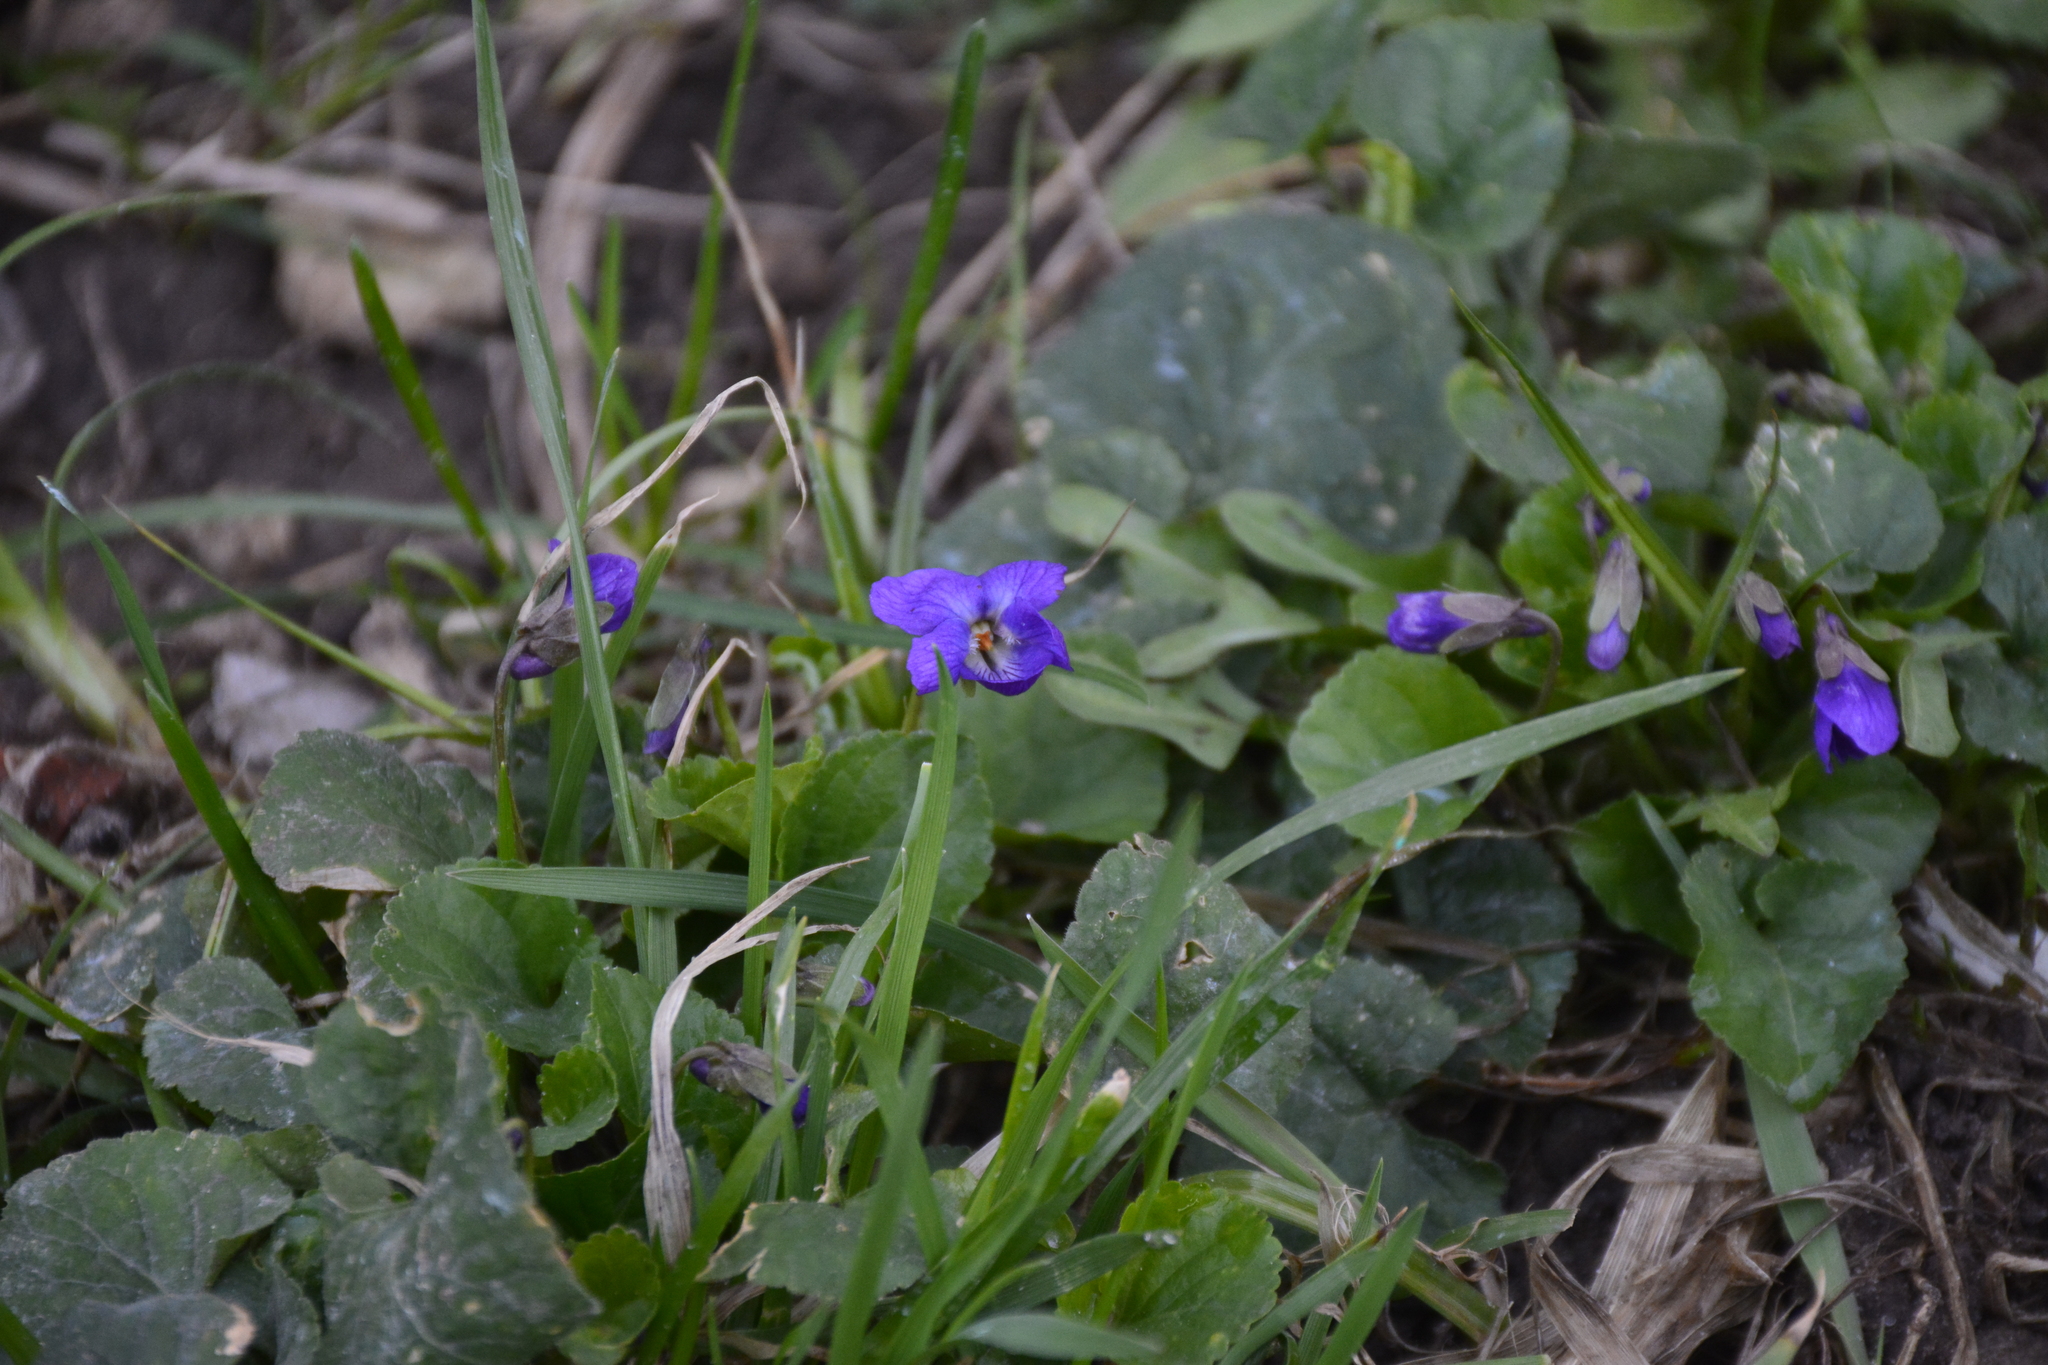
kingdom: Plantae
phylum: Tracheophyta
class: Magnoliopsida
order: Malpighiales
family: Violaceae
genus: Viola
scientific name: Viola odorata
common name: Sweet violet
